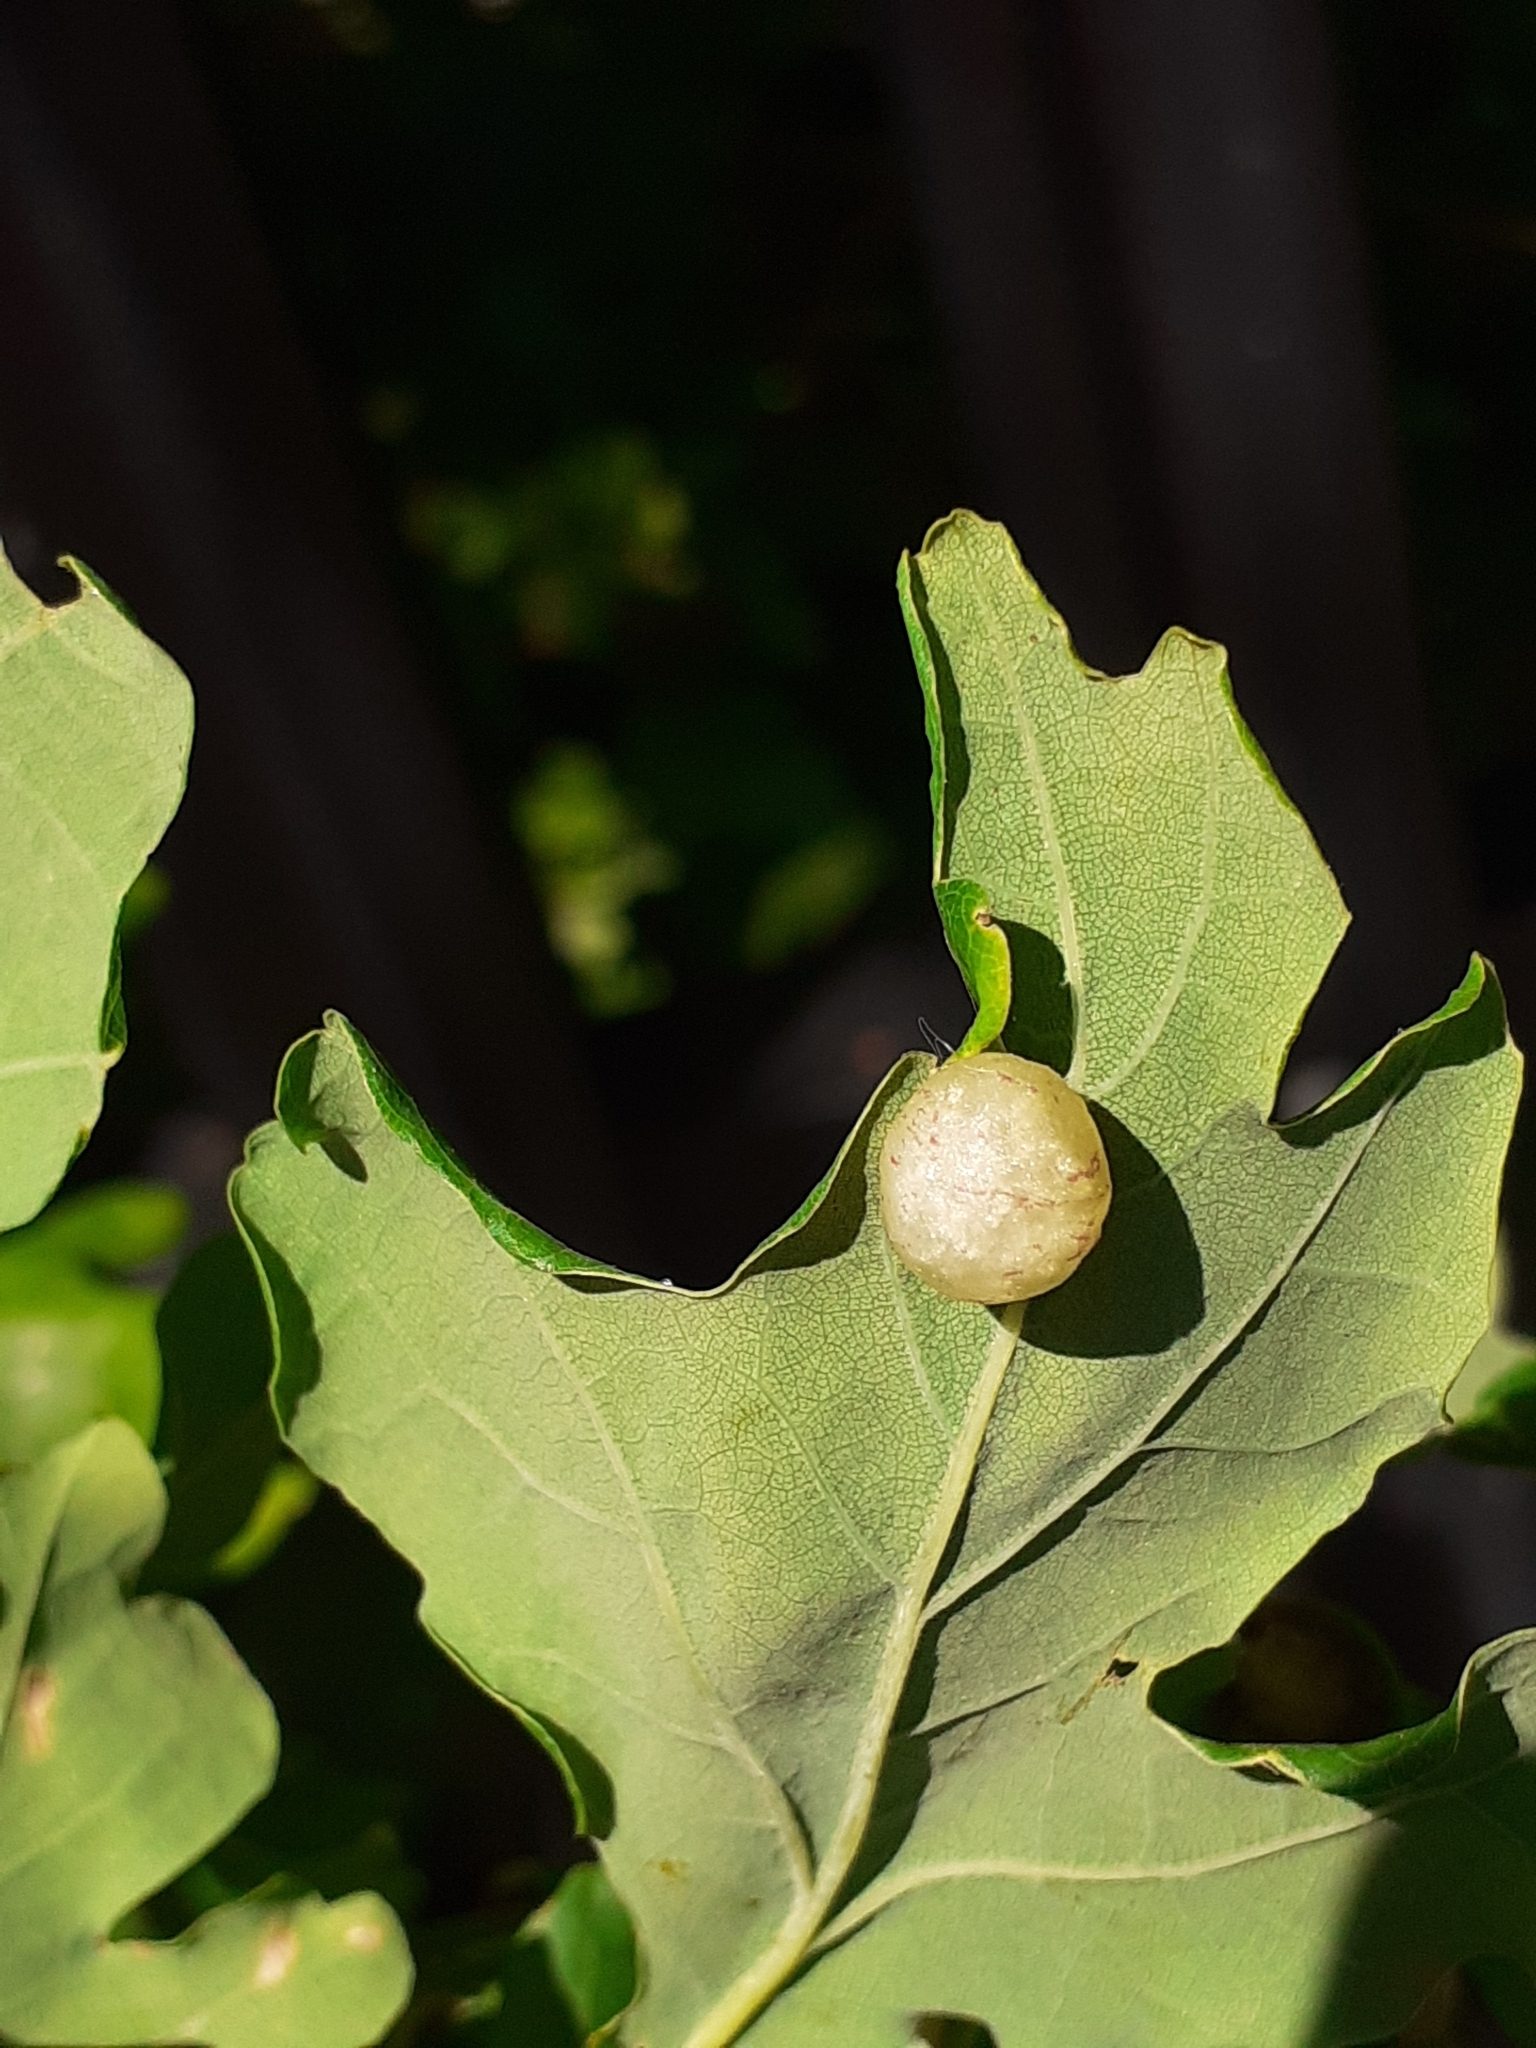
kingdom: Animalia
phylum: Arthropoda
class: Insecta
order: Hymenoptera
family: Cynipidae
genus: Neuroterus
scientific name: Neuroterus quercusbaccarum
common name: Common spangle gall
